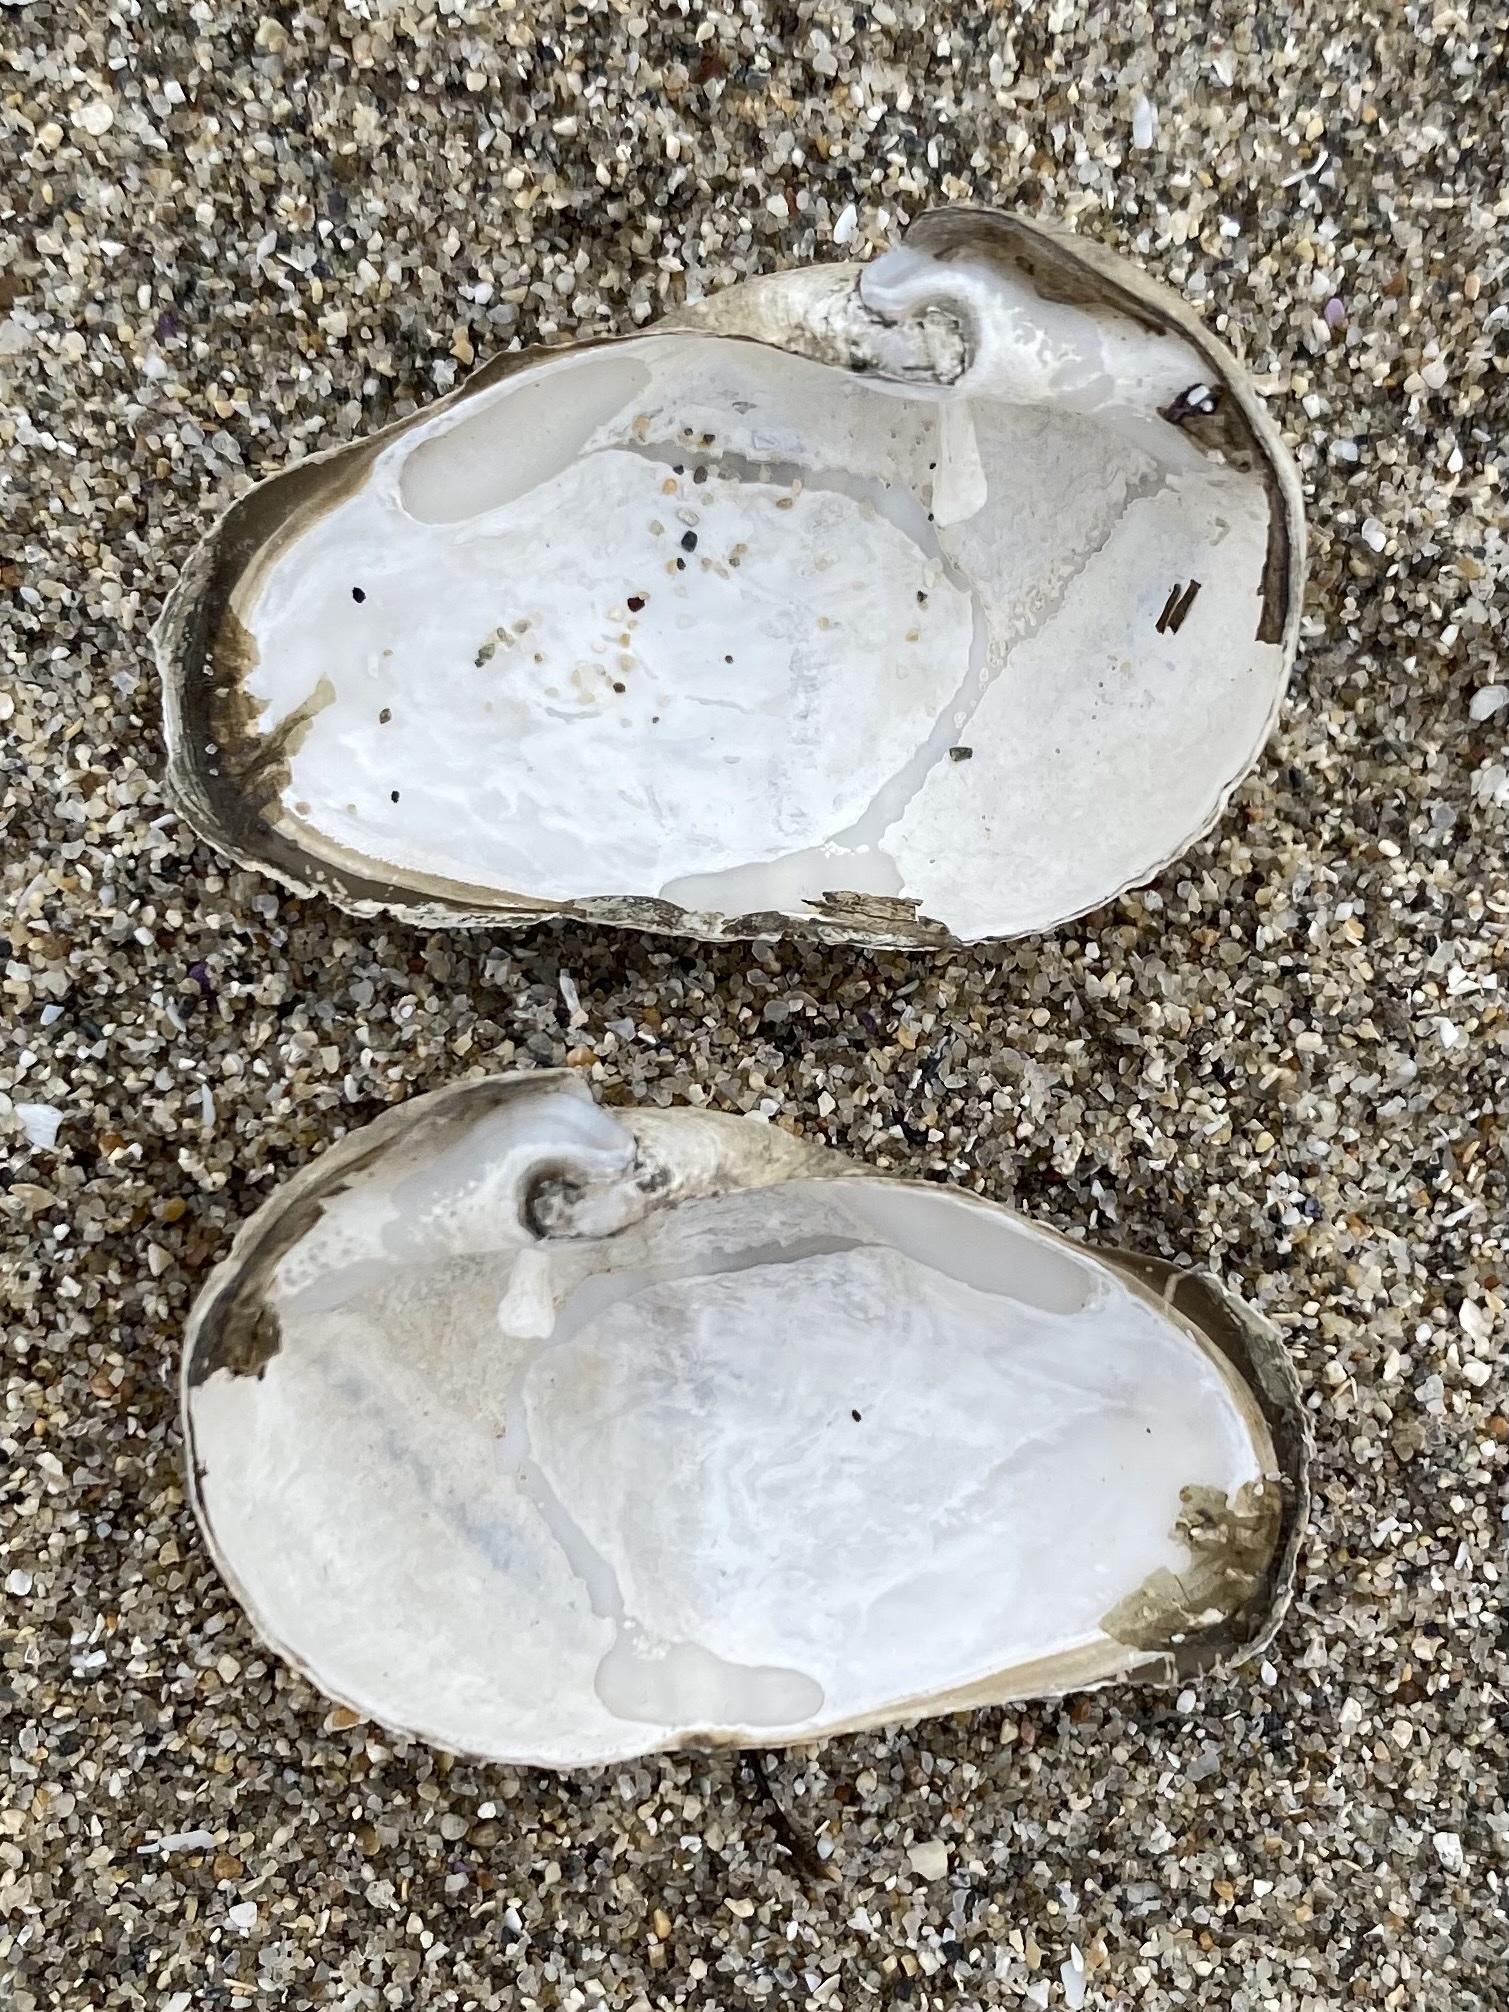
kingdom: Animalia
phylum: Mollusca
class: Bivalvia
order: Myida
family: Pholadidae
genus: Penitella
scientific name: Penitella richardsoni
